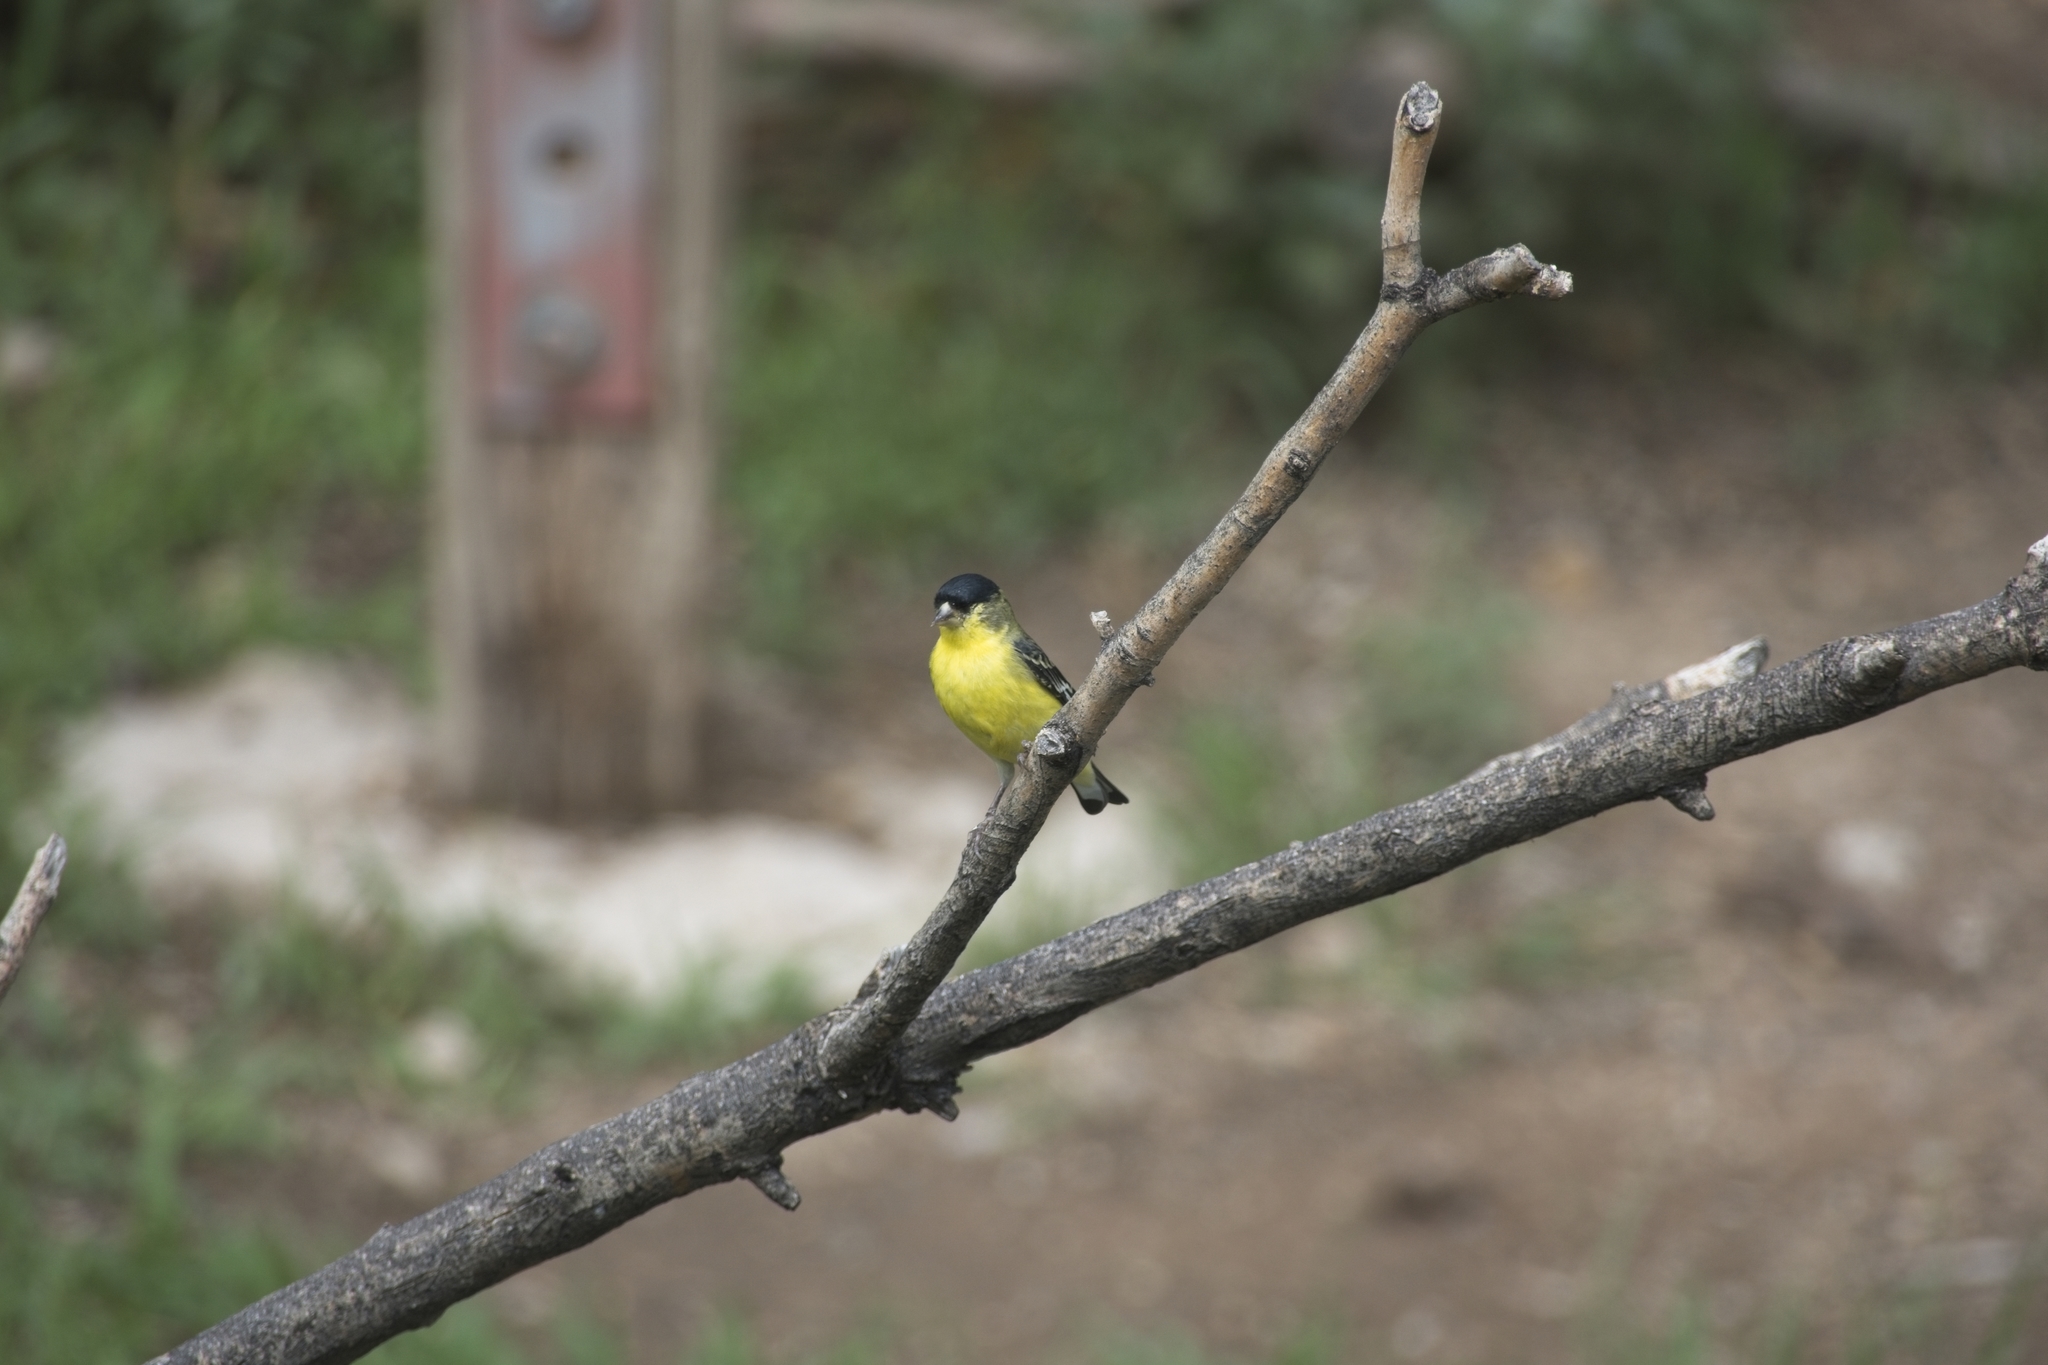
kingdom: Animalia
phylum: Chordata
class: Aves
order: Passeriformes
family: Fringillidae
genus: Spinus
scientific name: Spinus psaltria
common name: Lesser goldfinch
